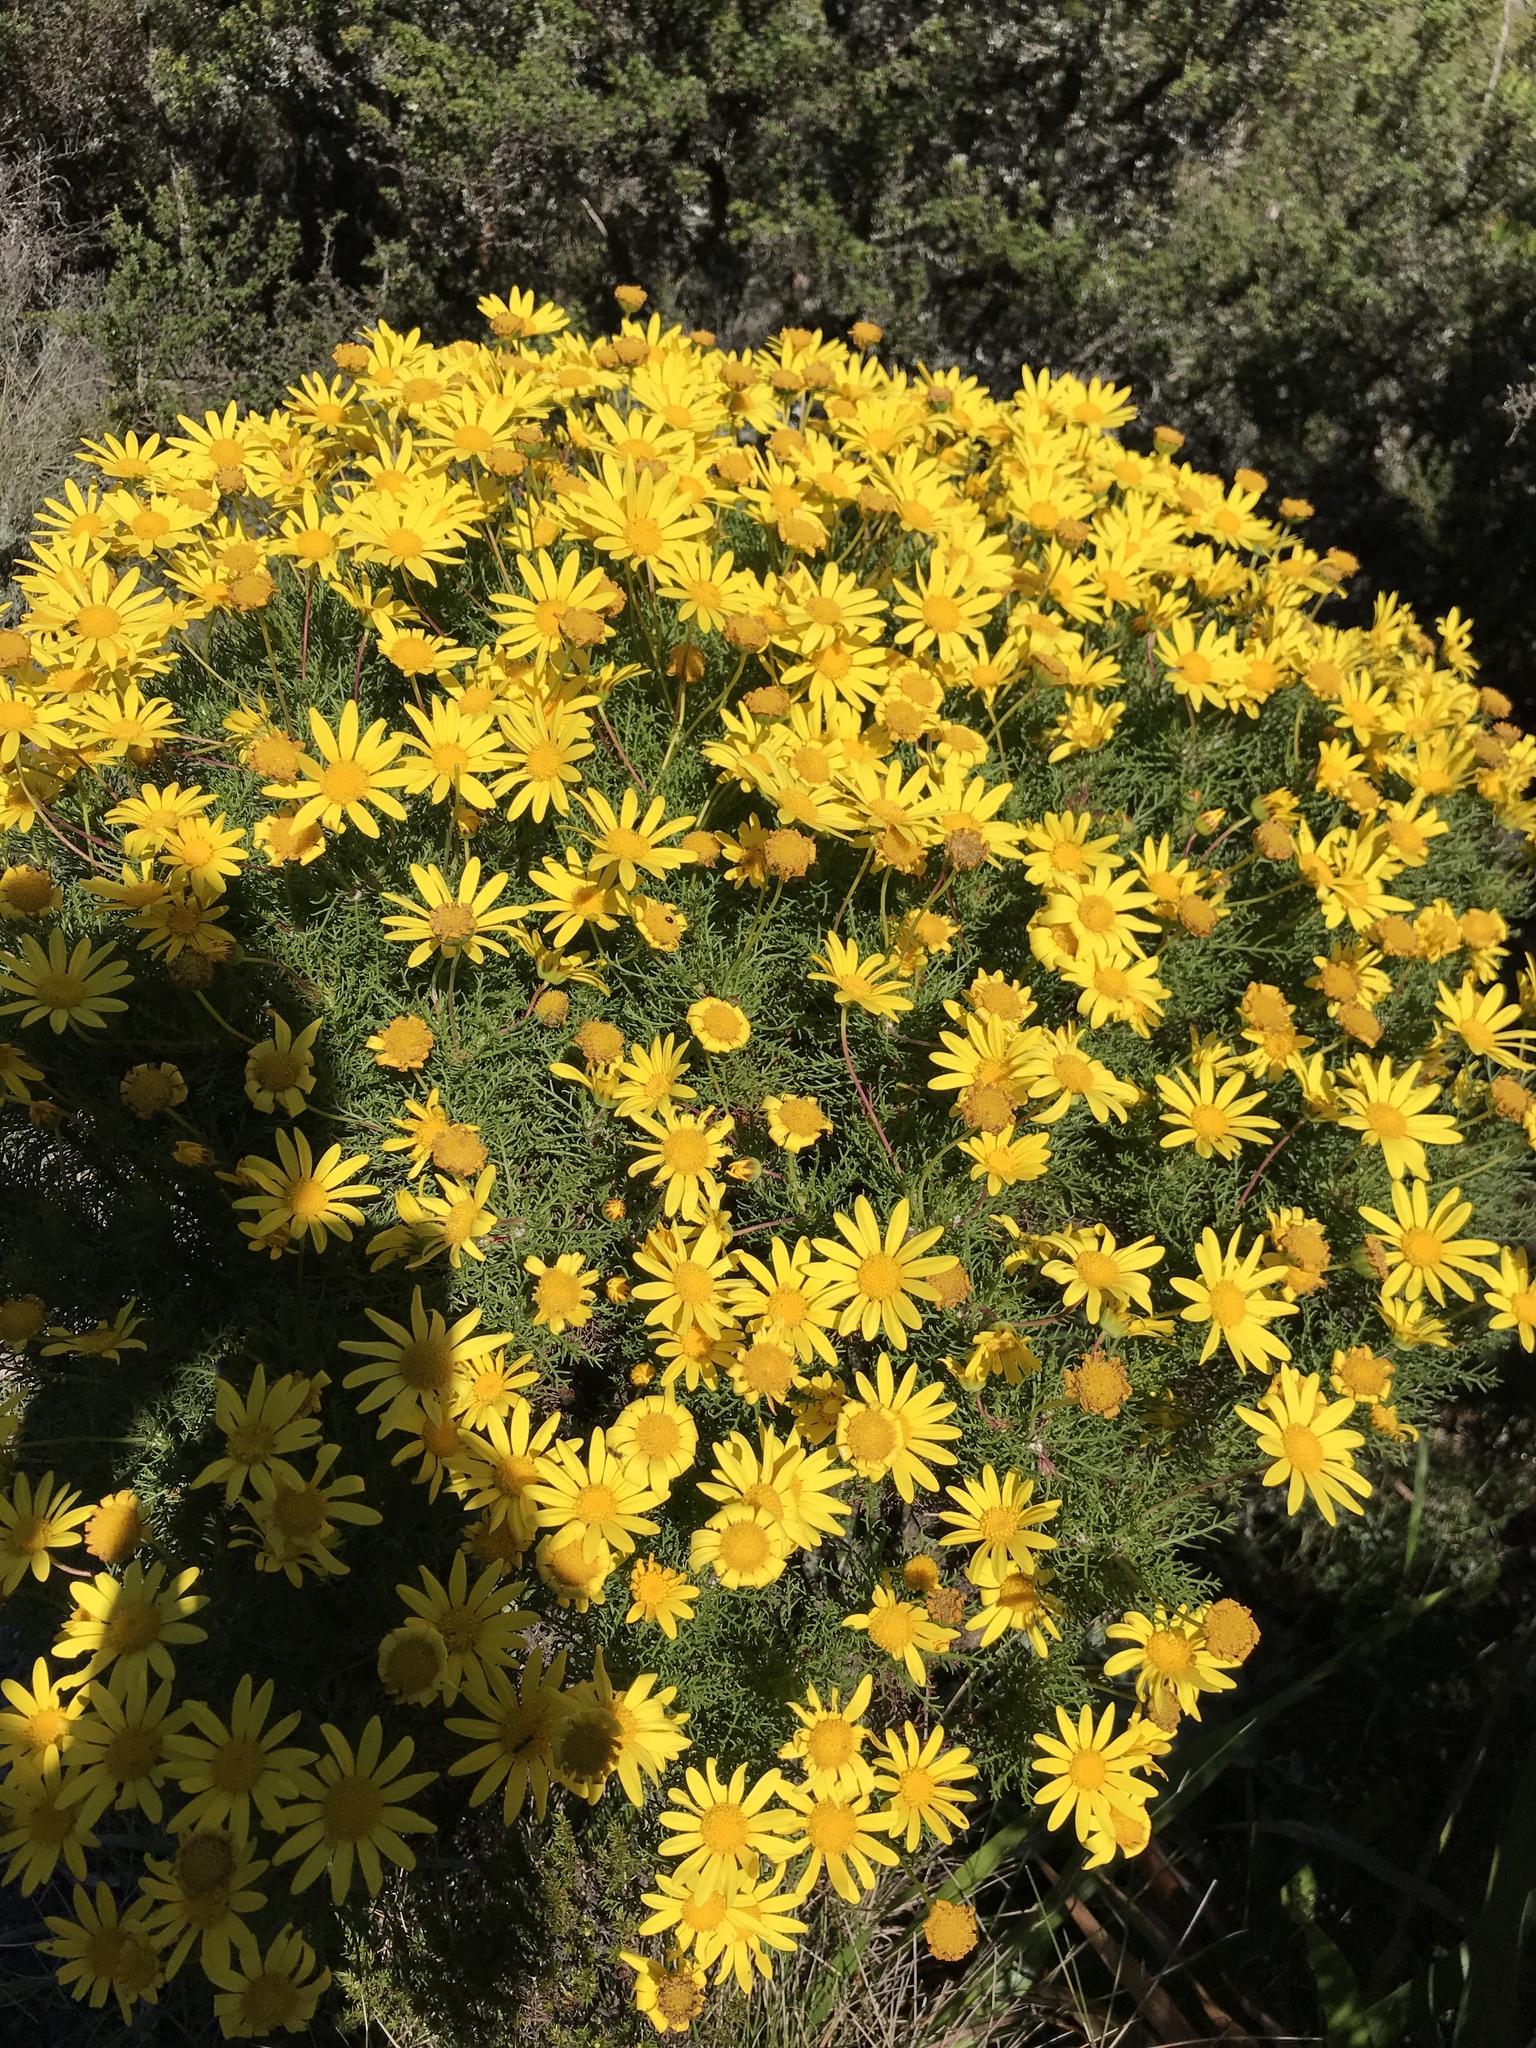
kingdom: Plantae
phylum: Tracheophyta
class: Magnoliopsida
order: Asterales
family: Asteraceae
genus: Euryops
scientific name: Euryops abrotanifolius
